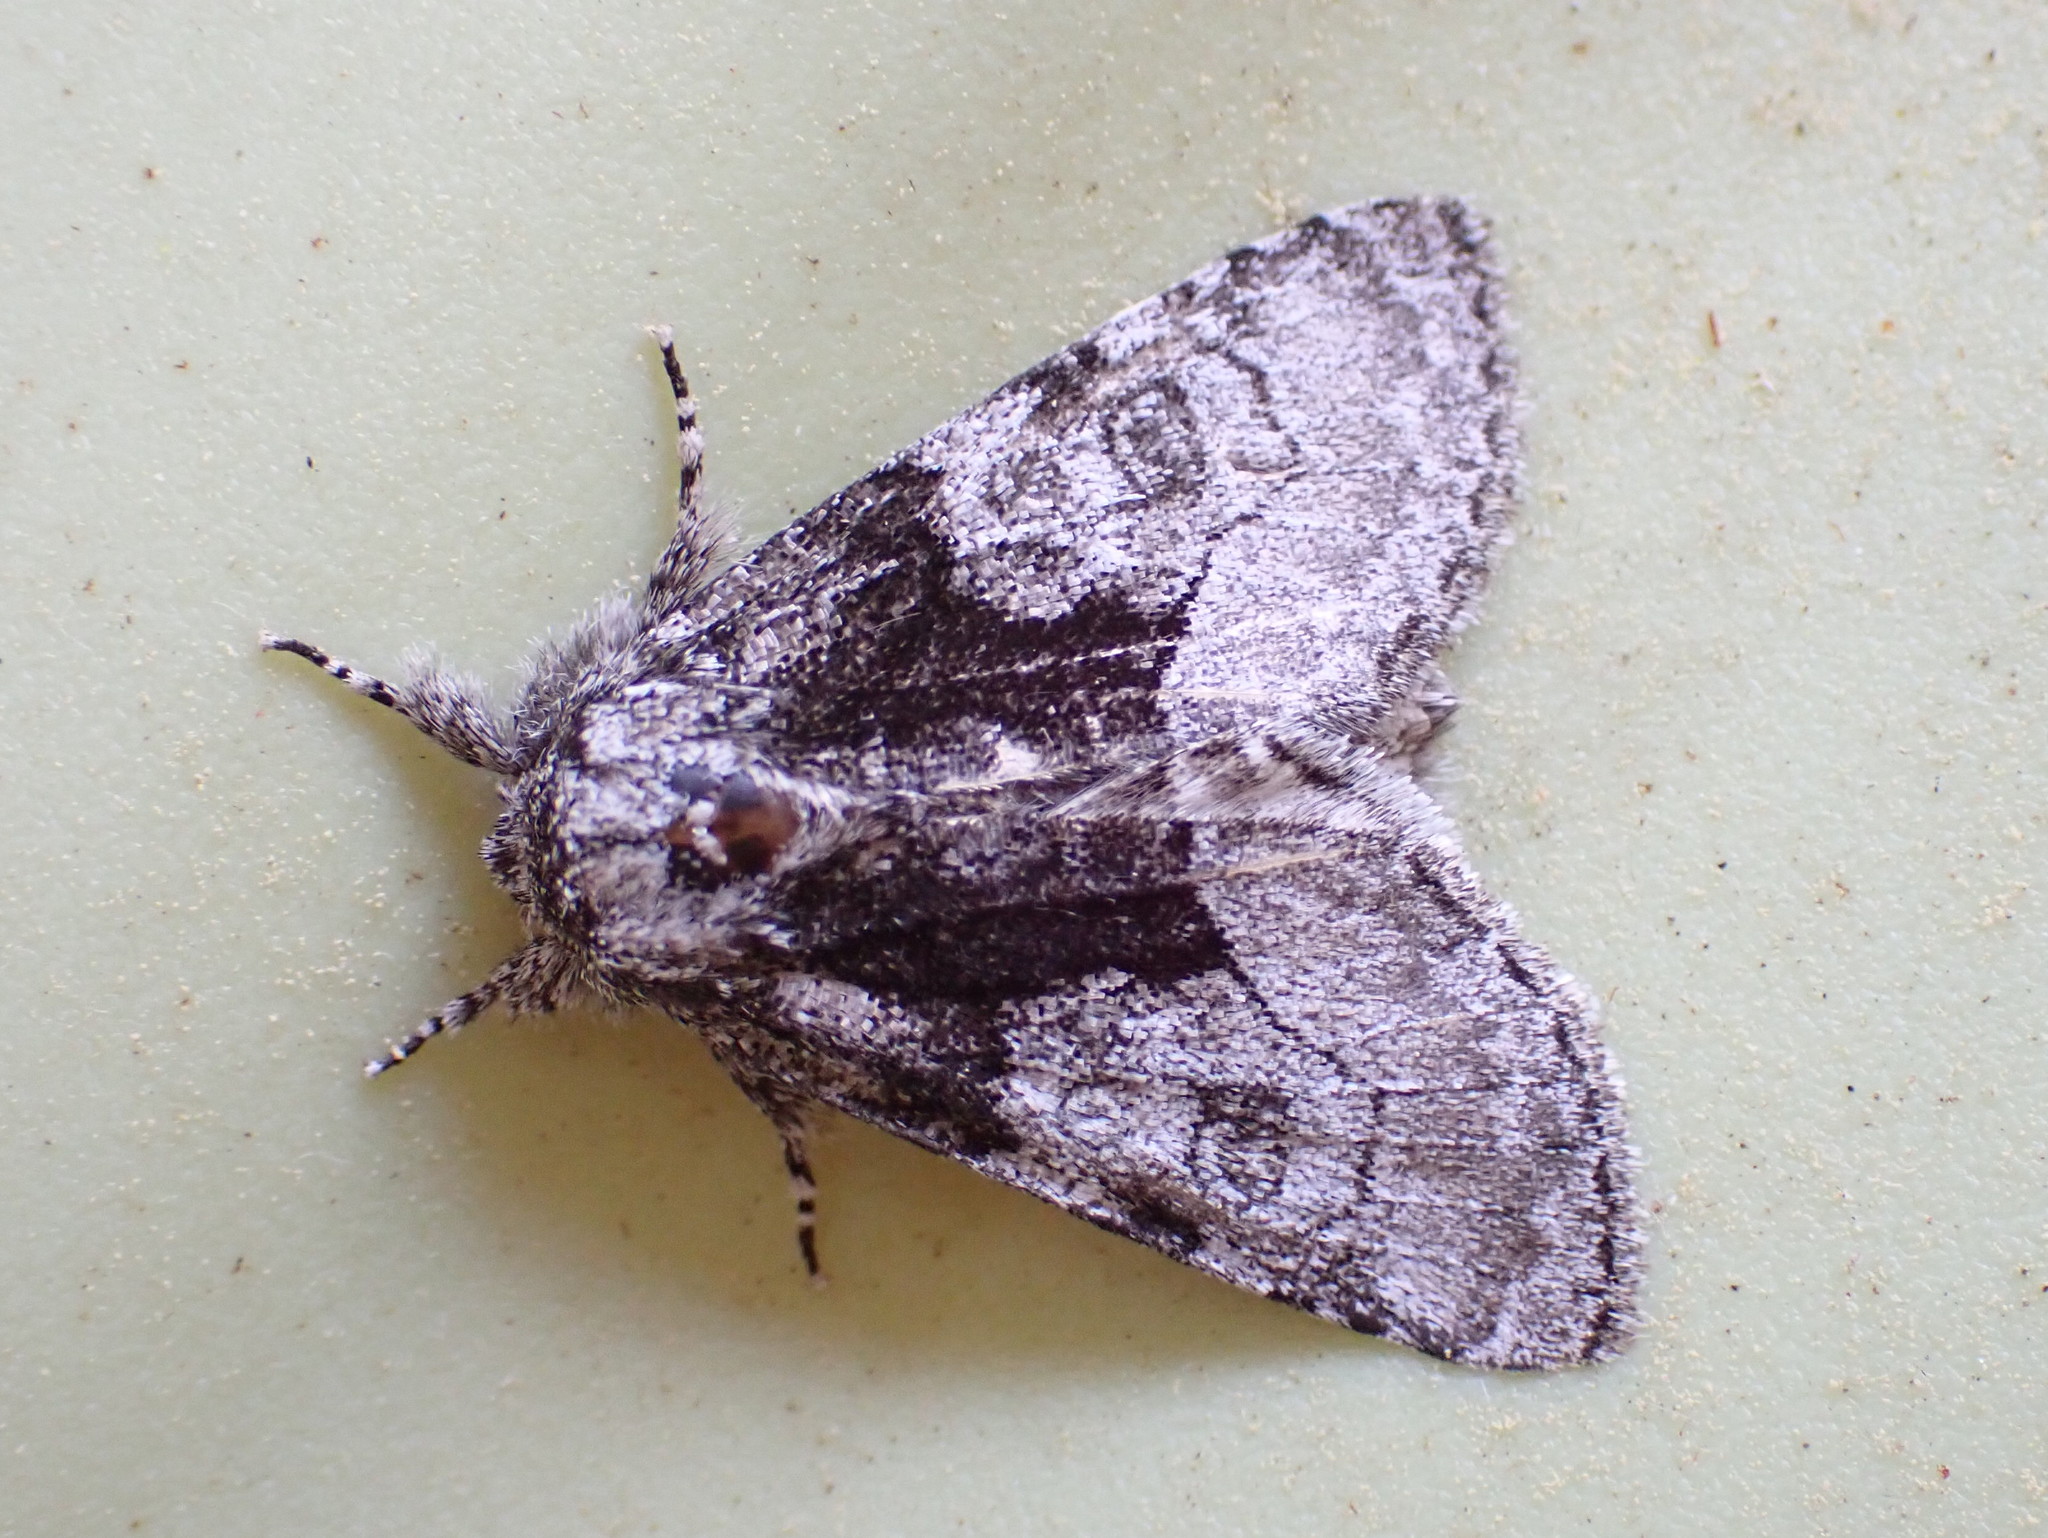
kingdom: Animalia
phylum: Arthropoda
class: Insecta
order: Lepidoptera
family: Noctuidae
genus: Raphia
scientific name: Raphia frater
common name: Brother
